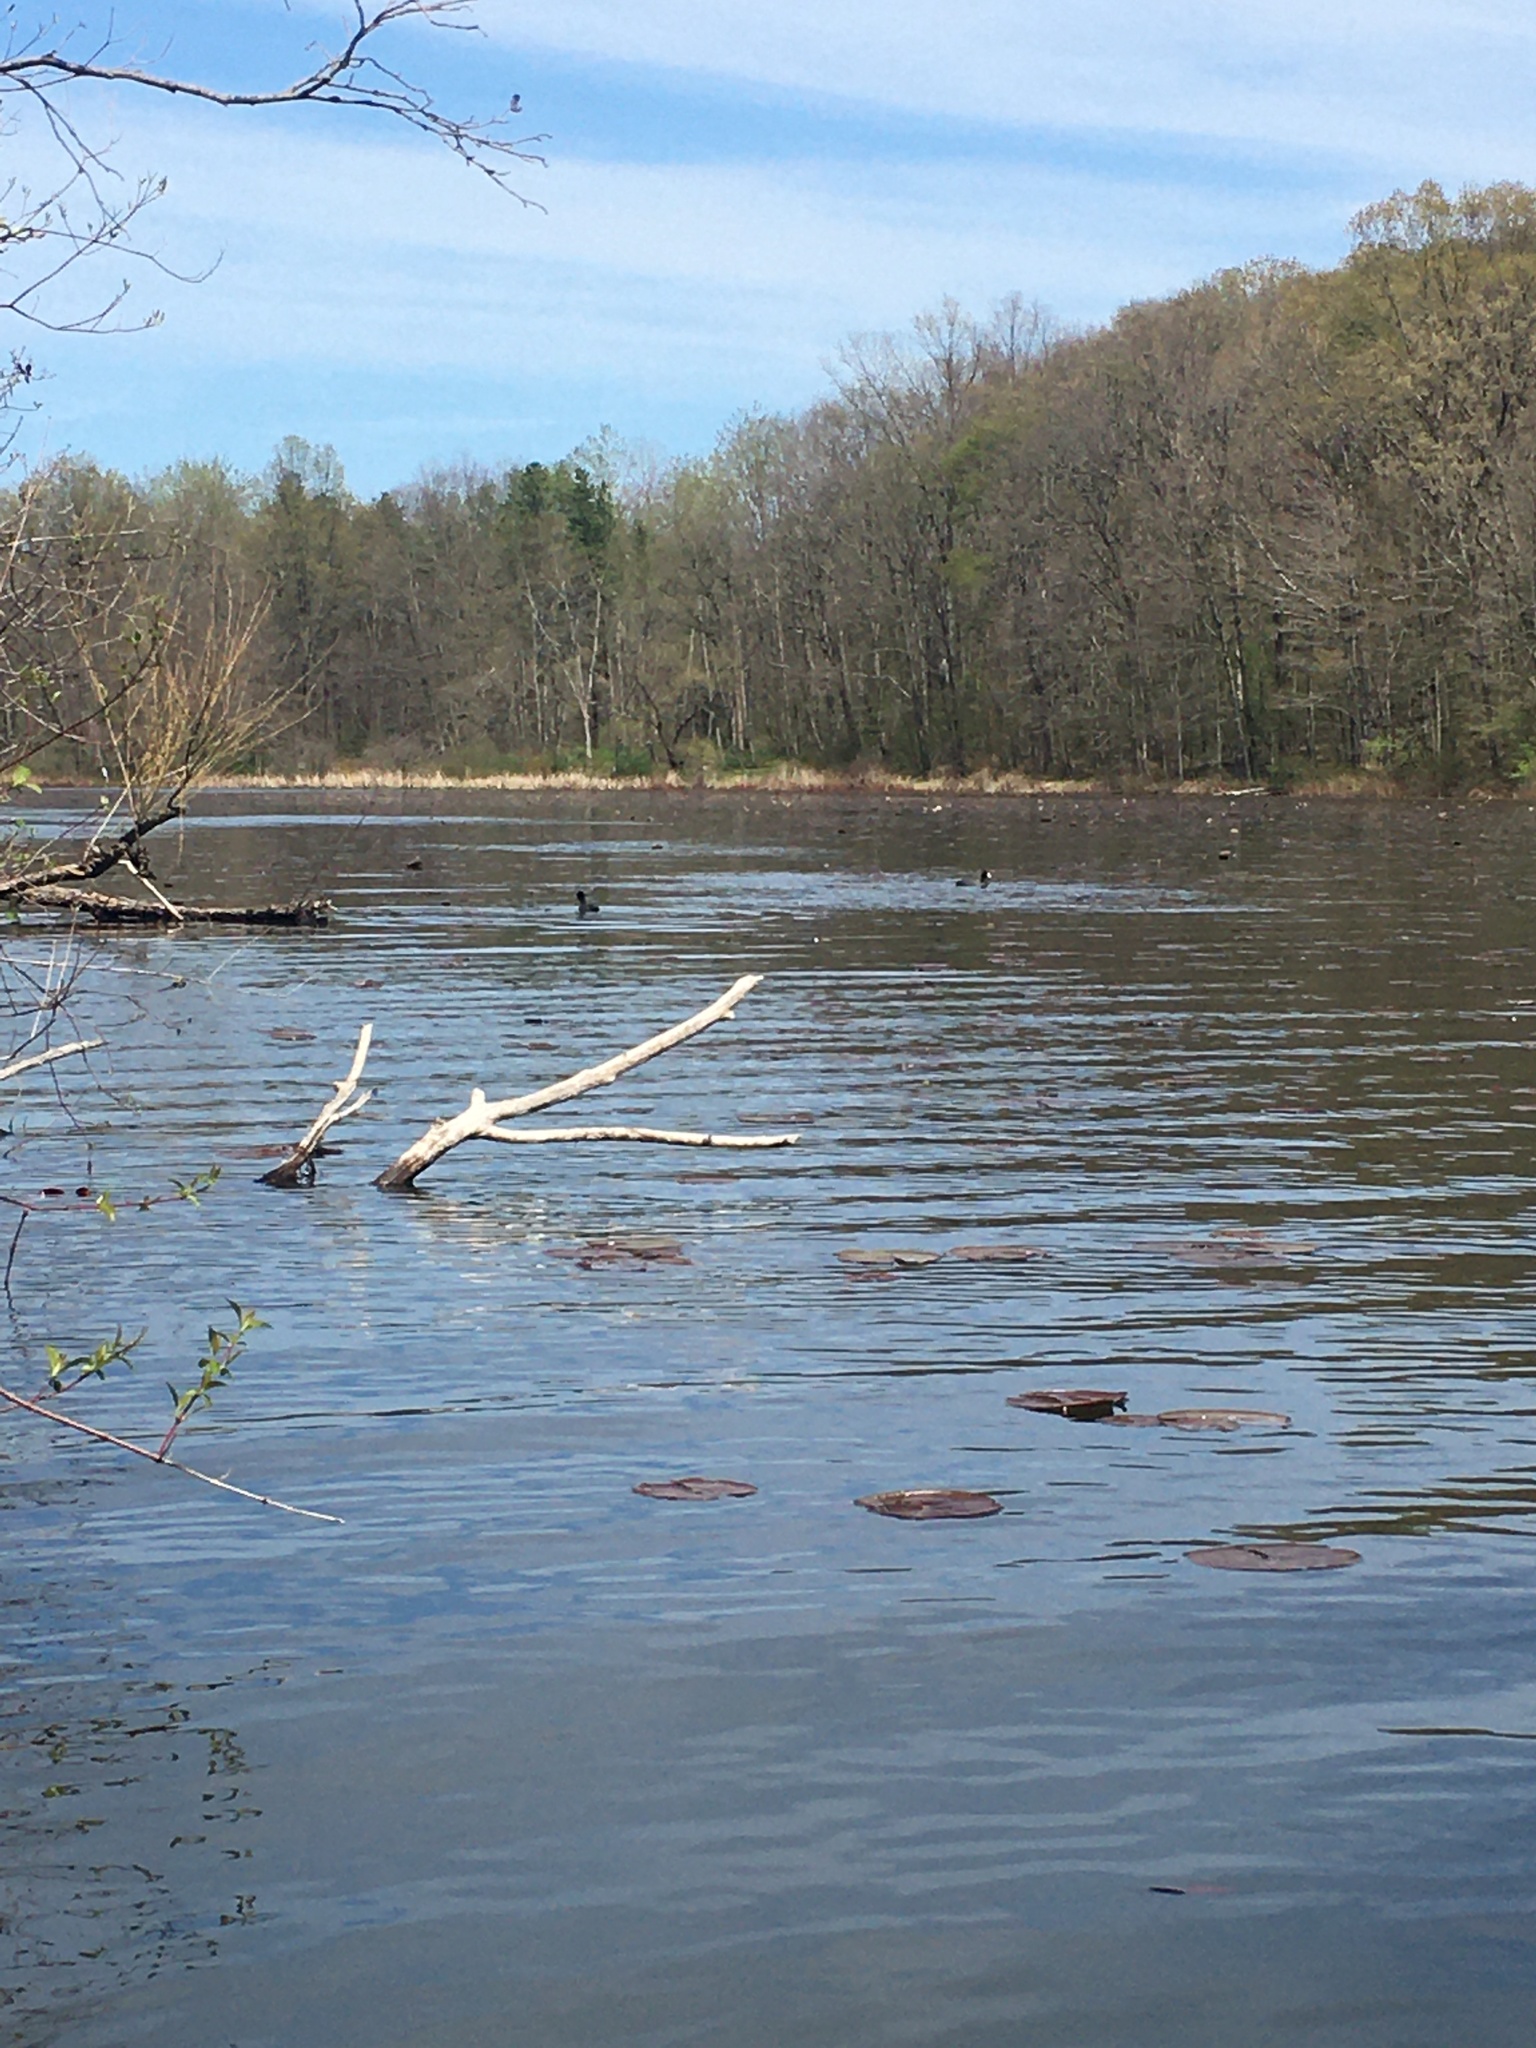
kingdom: Animalia
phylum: Chordata
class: Aves
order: Gruiformes
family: Rallidae
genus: Fulica
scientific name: Fulica americana
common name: American coot
